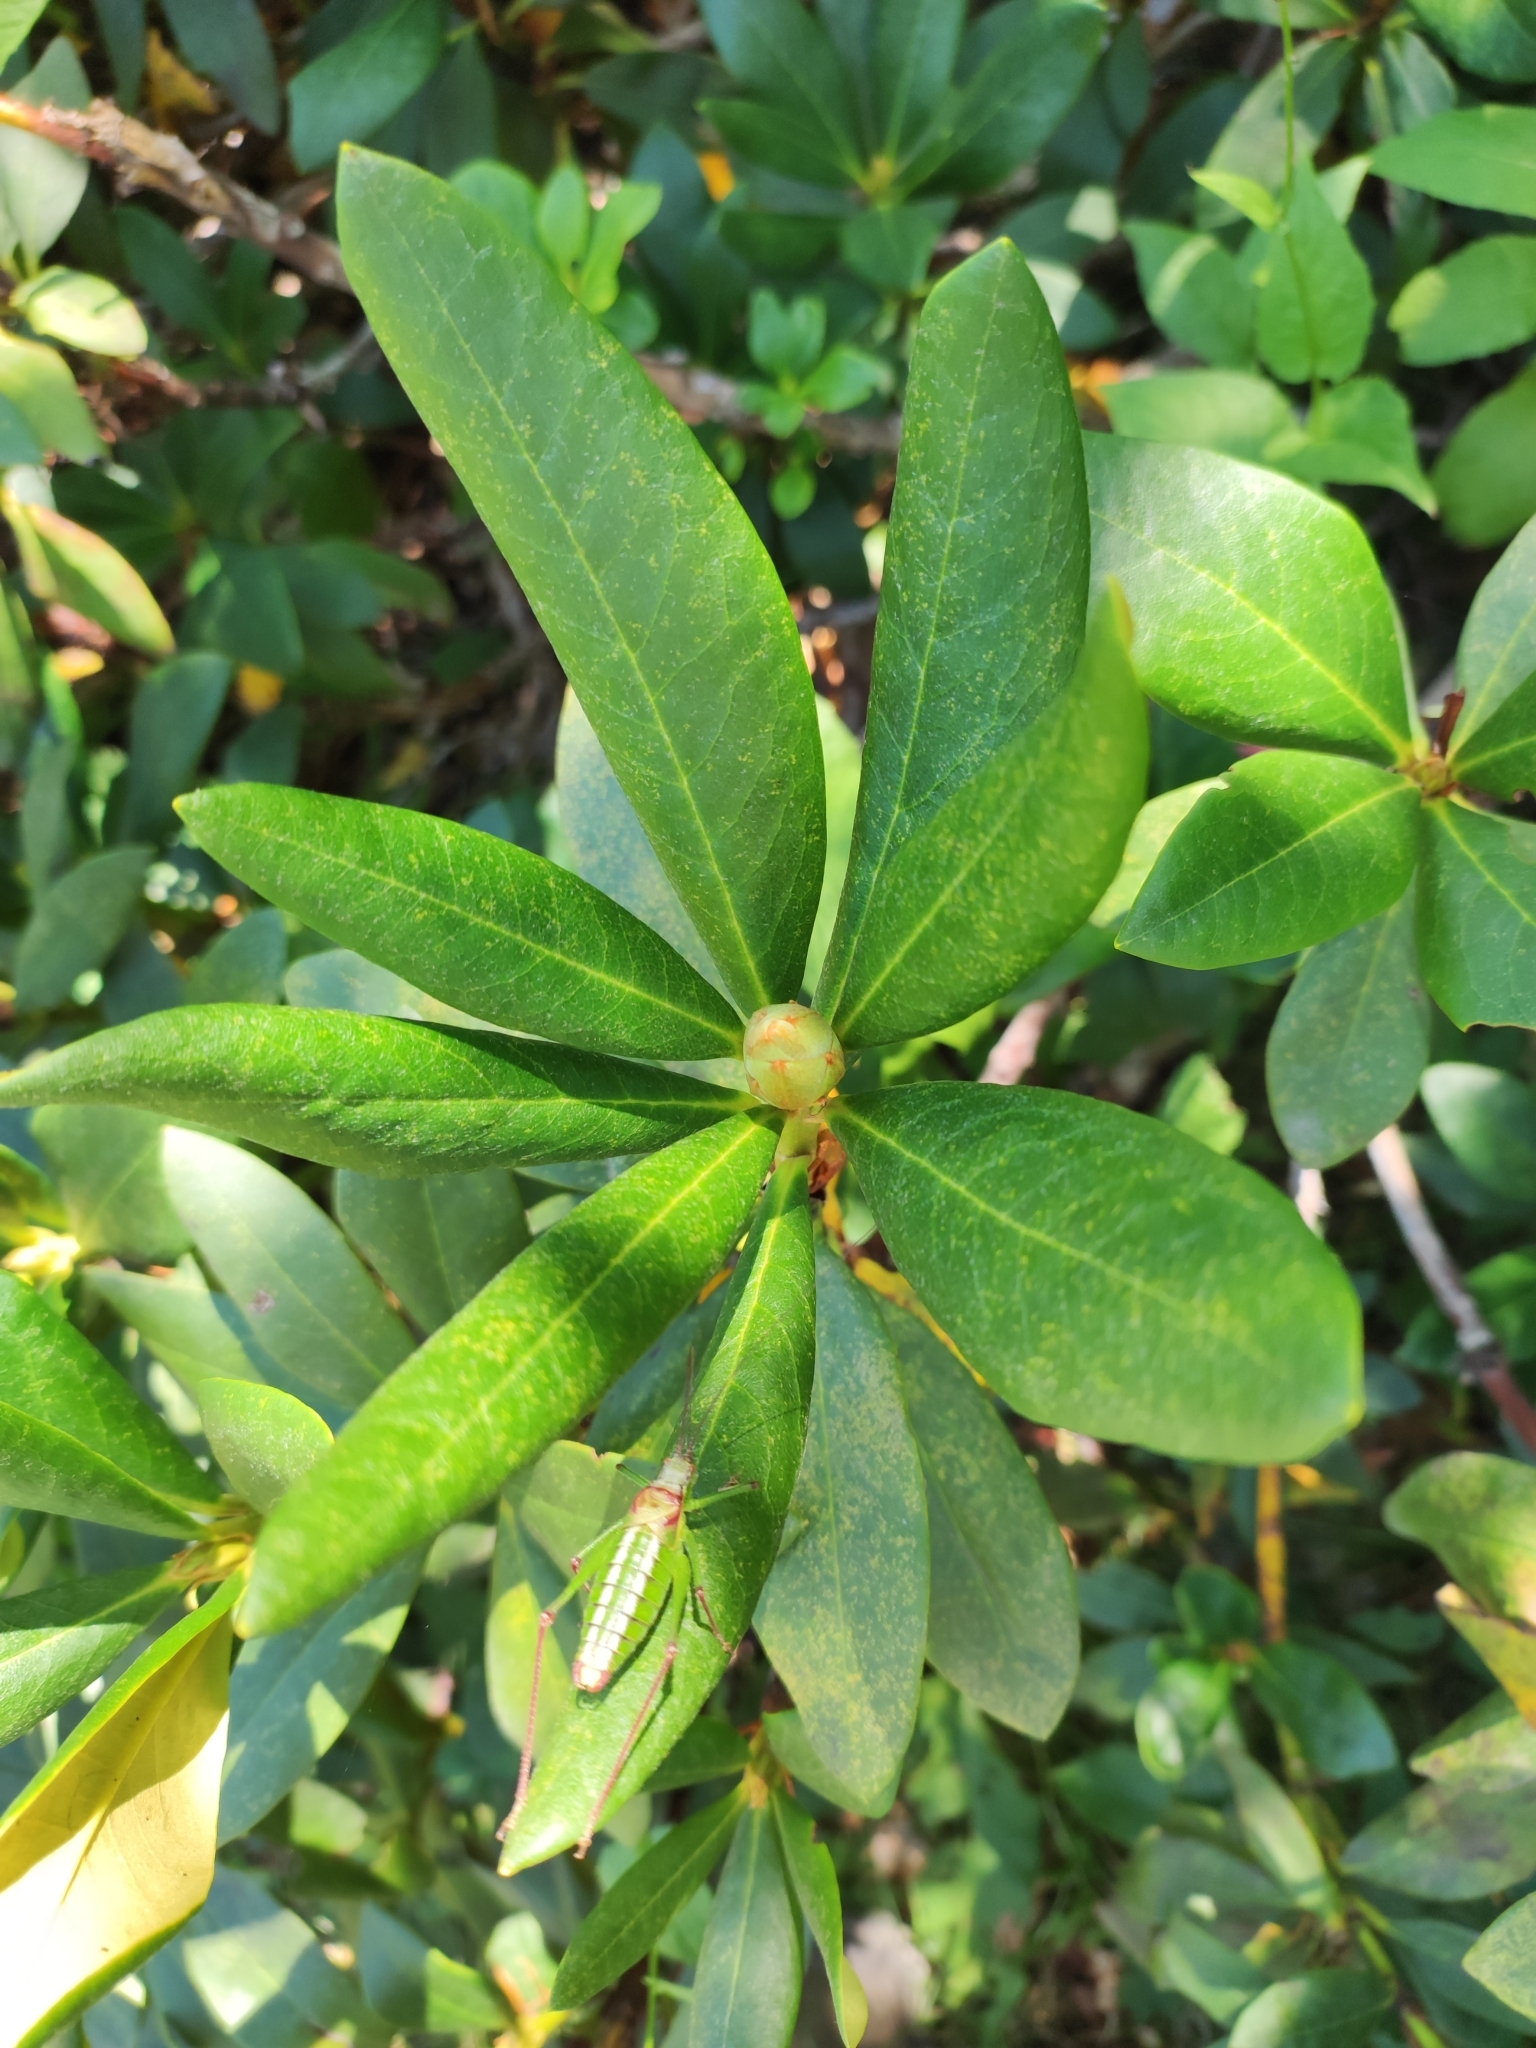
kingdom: Plantae
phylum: Tracheophyta
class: Magnoliopsida
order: Ericales
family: Ericaceae
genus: Rhododendron
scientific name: Rhododendron caucasicum
